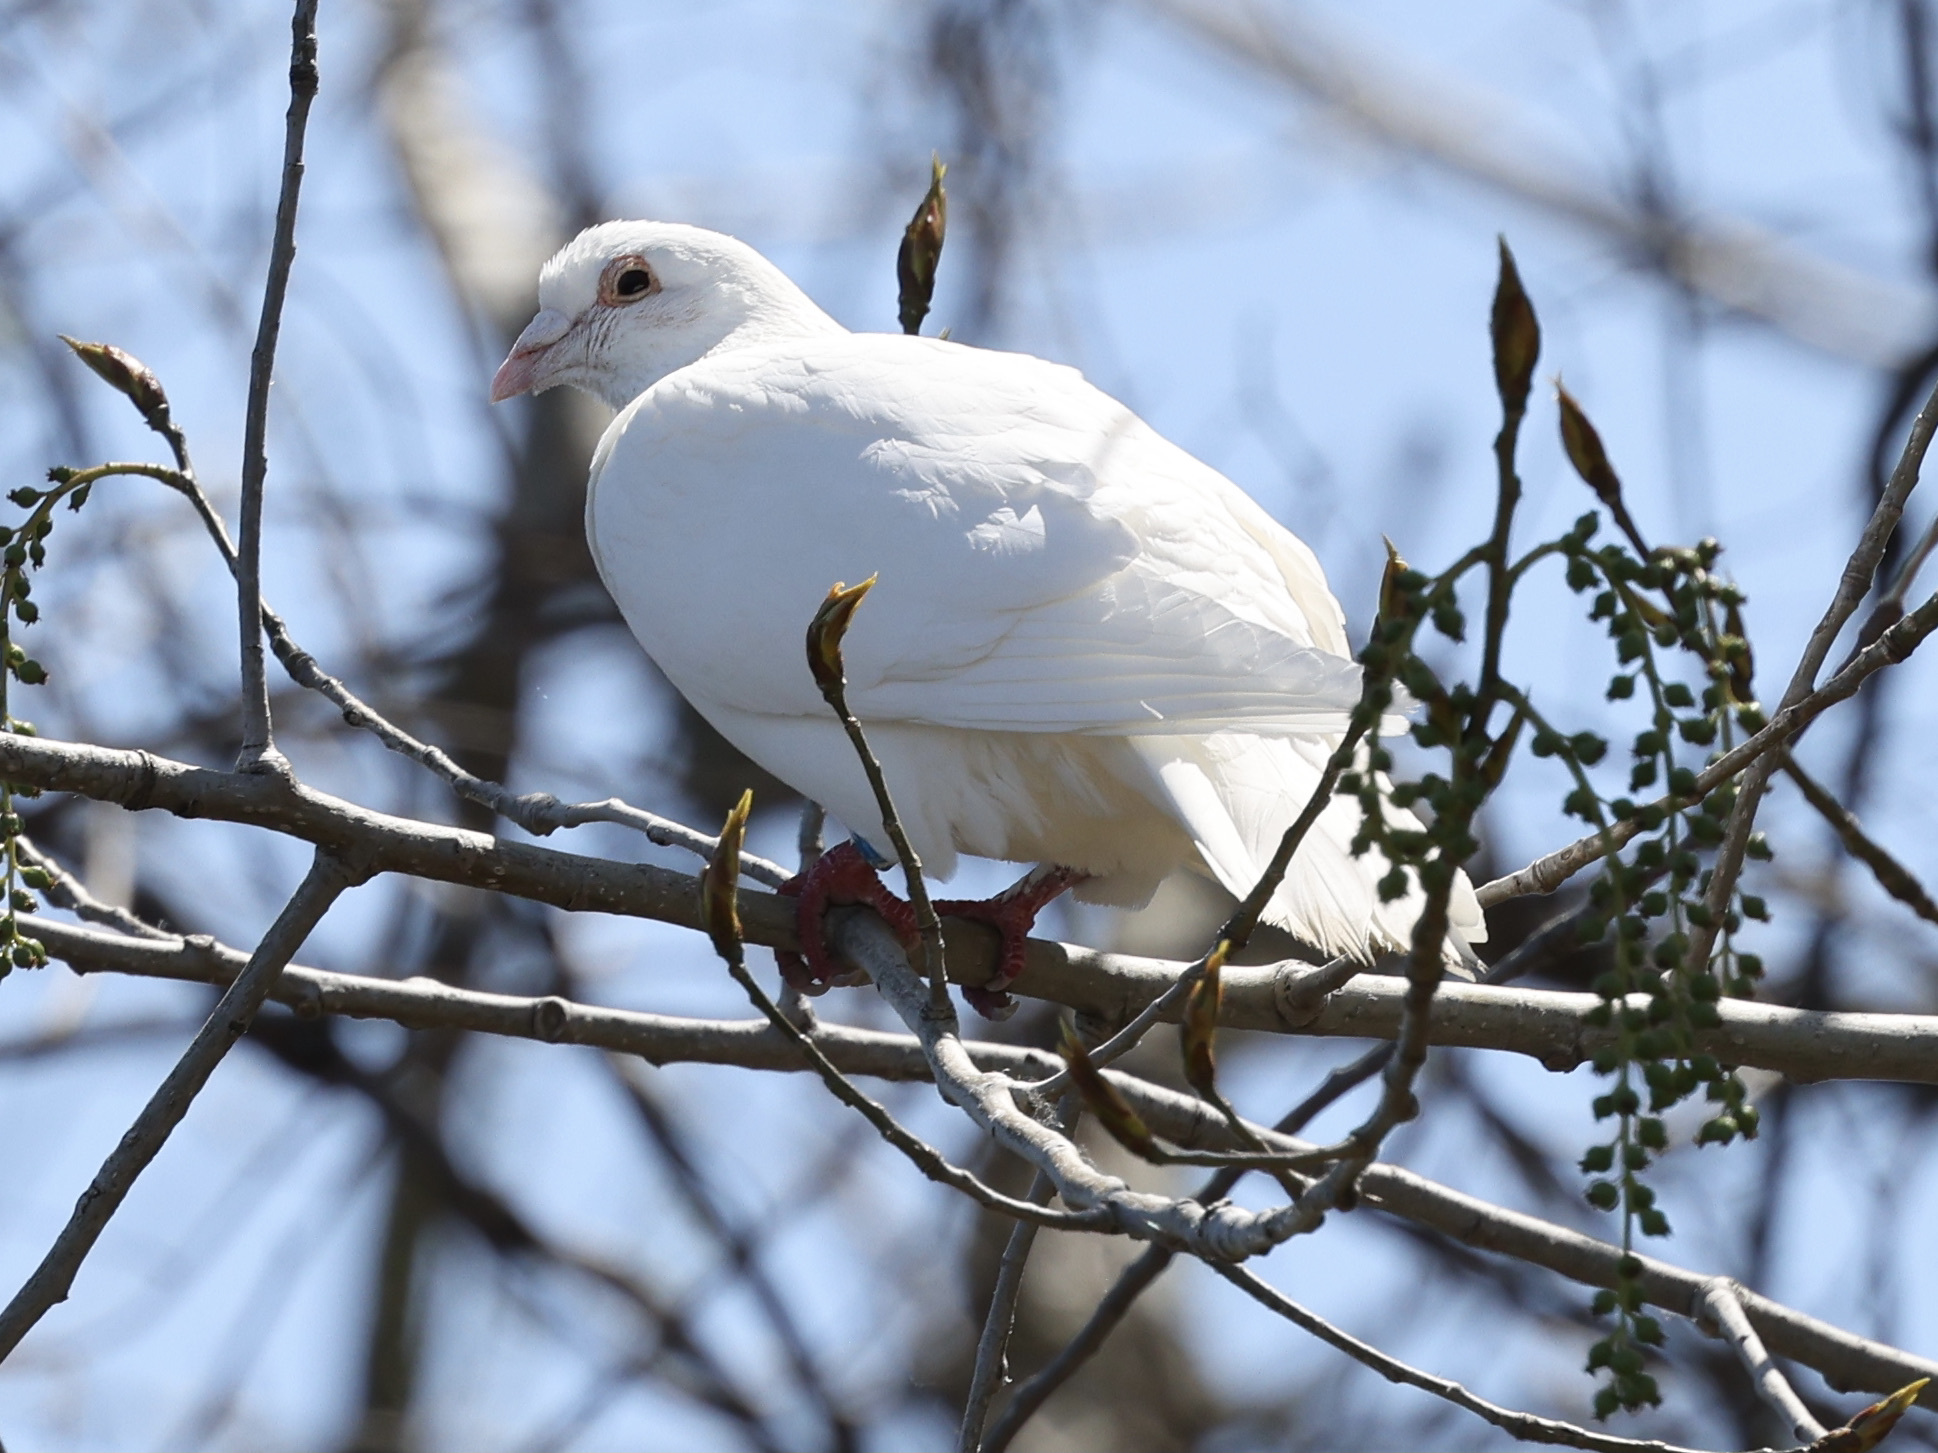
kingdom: Animalia
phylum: Chordata
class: Aves
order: Columbiformes
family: Columbidae
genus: Columba
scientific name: Columba livia
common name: Rock pigeon
